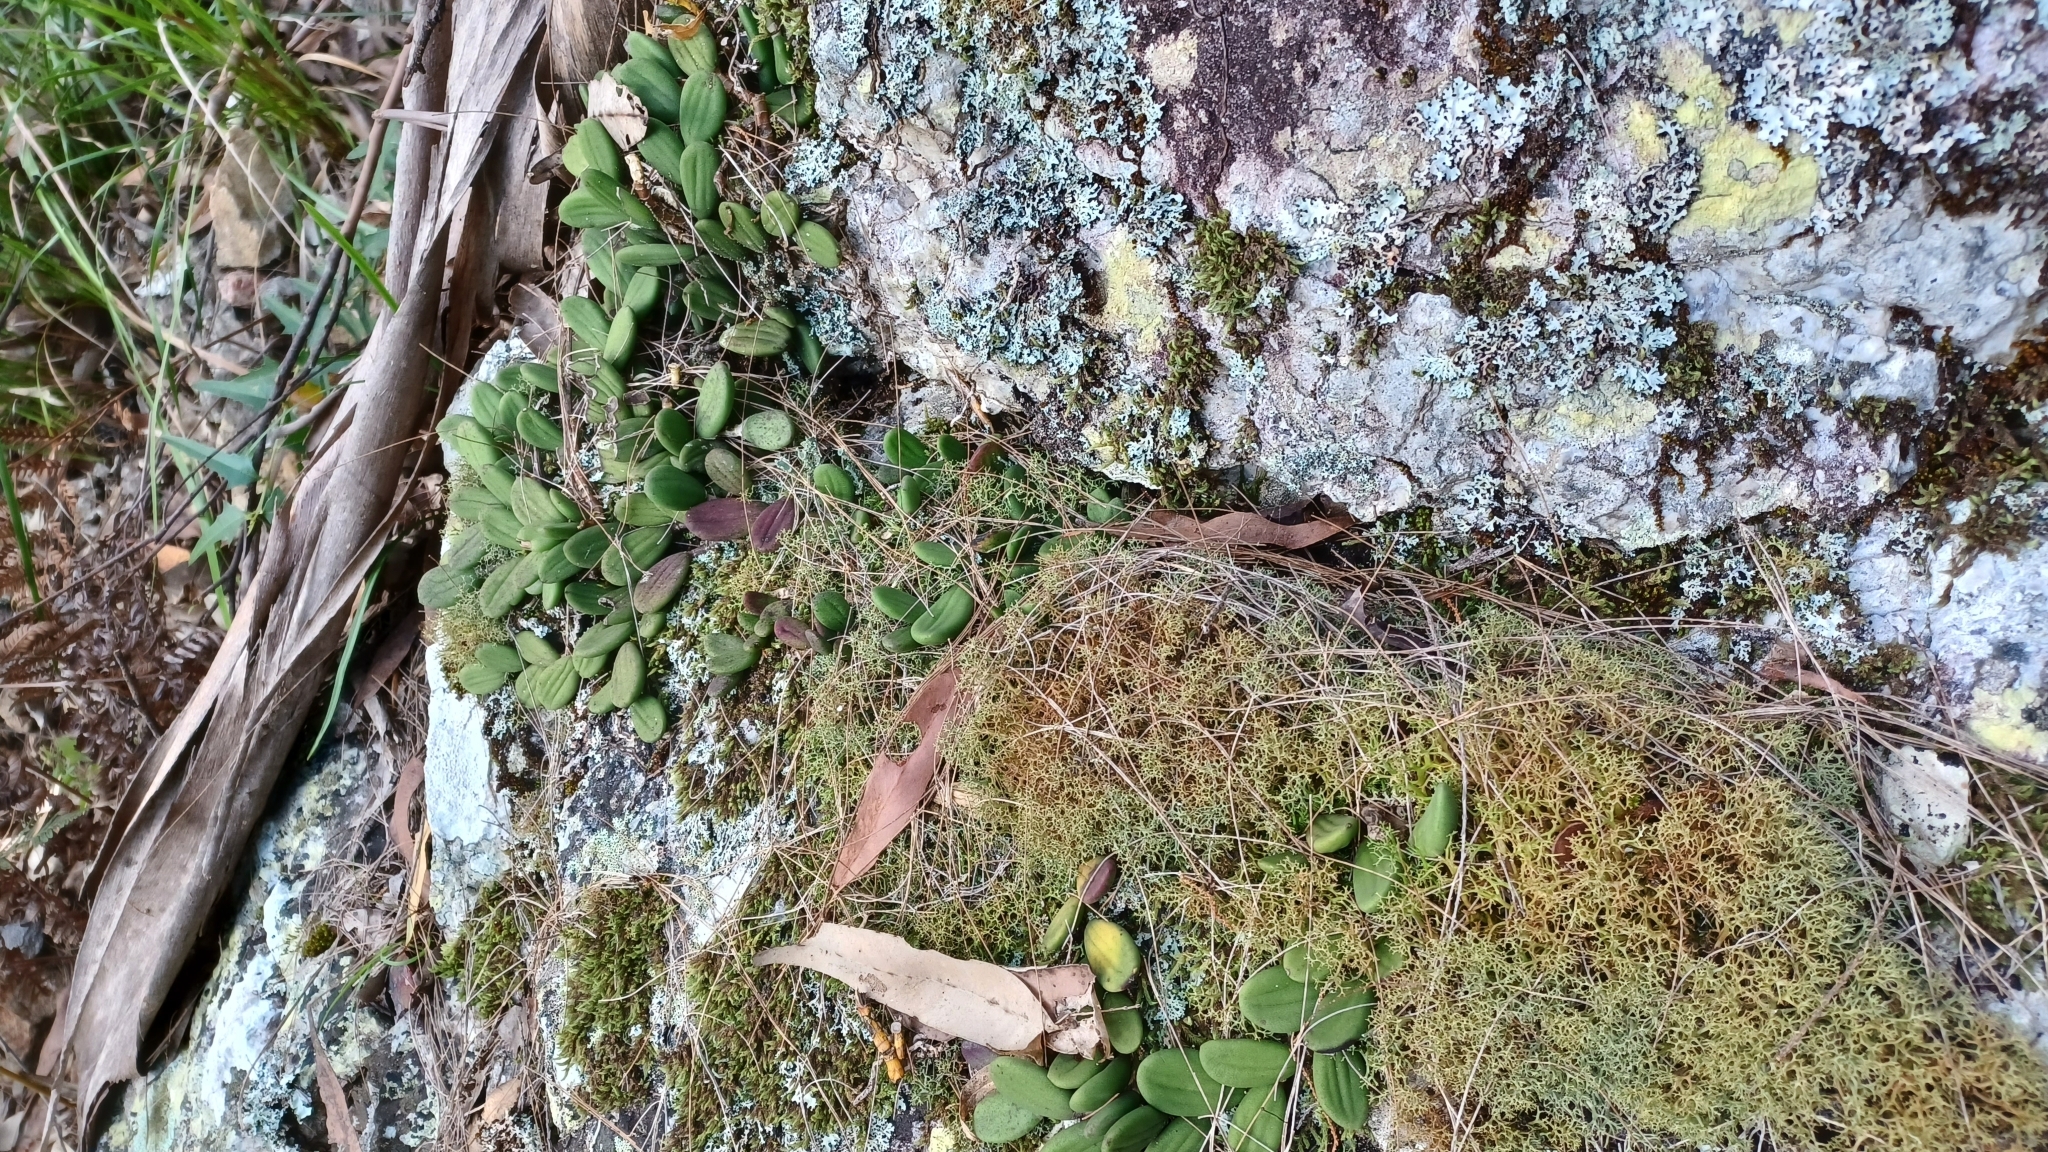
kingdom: Plantae
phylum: Tracheophyta
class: Liliopsida
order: Asparagales
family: Orchidaceae
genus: Dendrobium
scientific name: Dendrobium linguiforme
